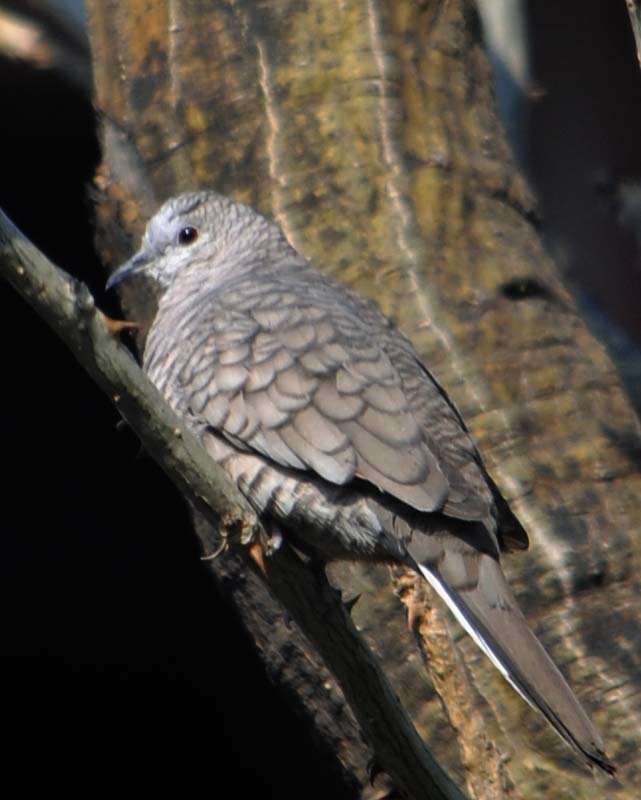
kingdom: Animalia
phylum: Chordata
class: Aves
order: Columbiformes
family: Columbidae
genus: Columbina
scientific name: Columbina inca
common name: Inca dove
